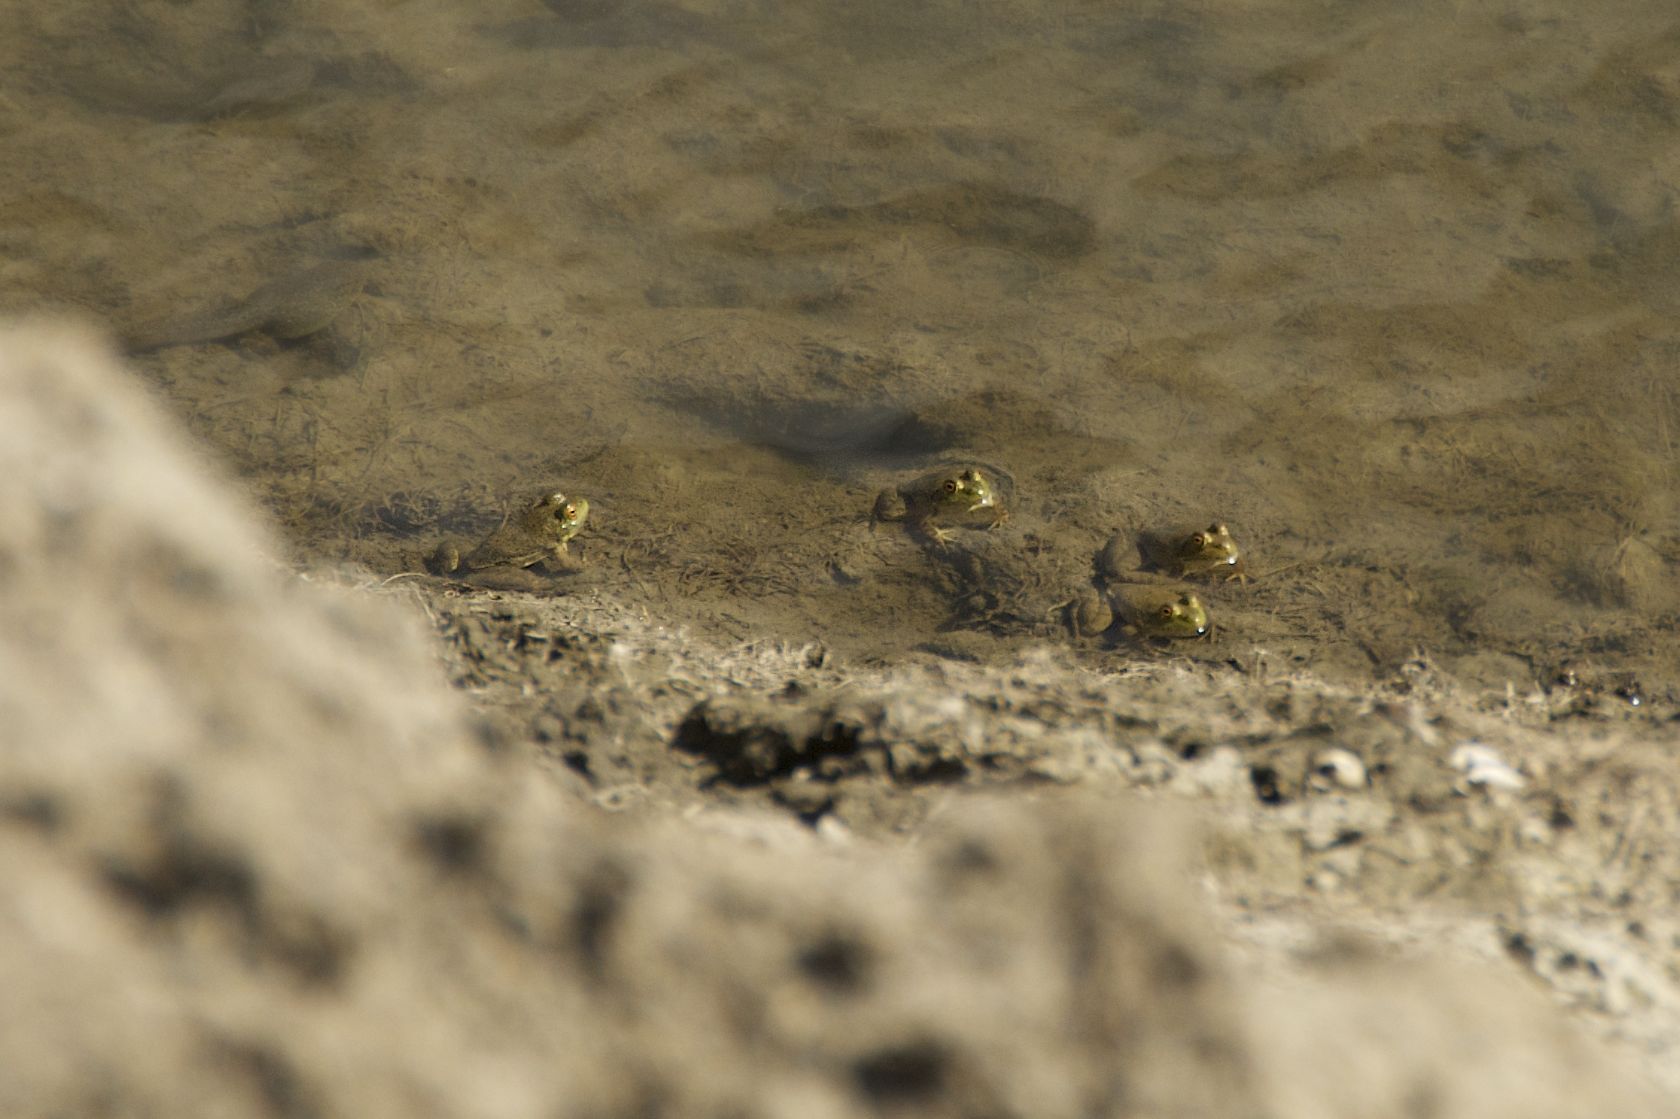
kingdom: Animalia
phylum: Chordata
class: Amphibia
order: Anura
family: Ranidae
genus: Lithobates
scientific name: Lithobates catesbeianus
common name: American bullfrog
